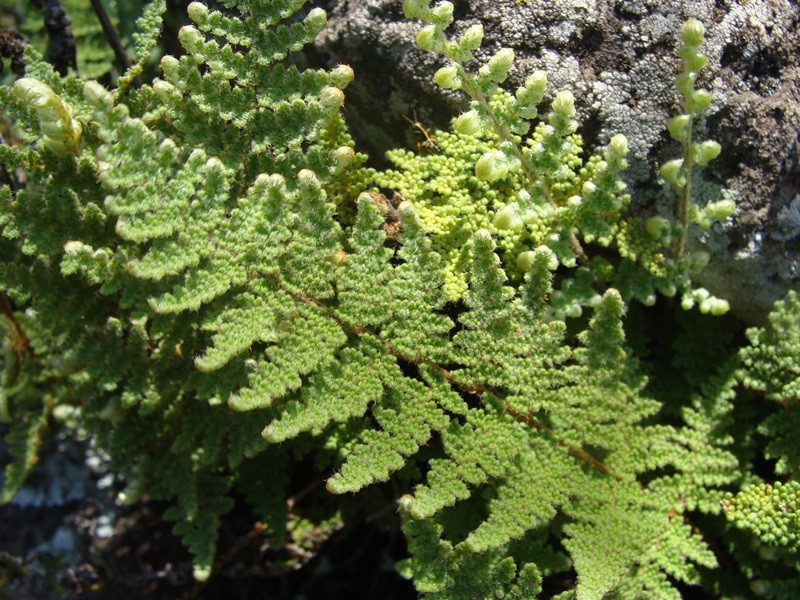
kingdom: Plantae
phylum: Tracheophyta
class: Polypodiopsida
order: Polypodiales
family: Pteridaceae
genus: Myriopteris
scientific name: Myriopteris myriophylla
